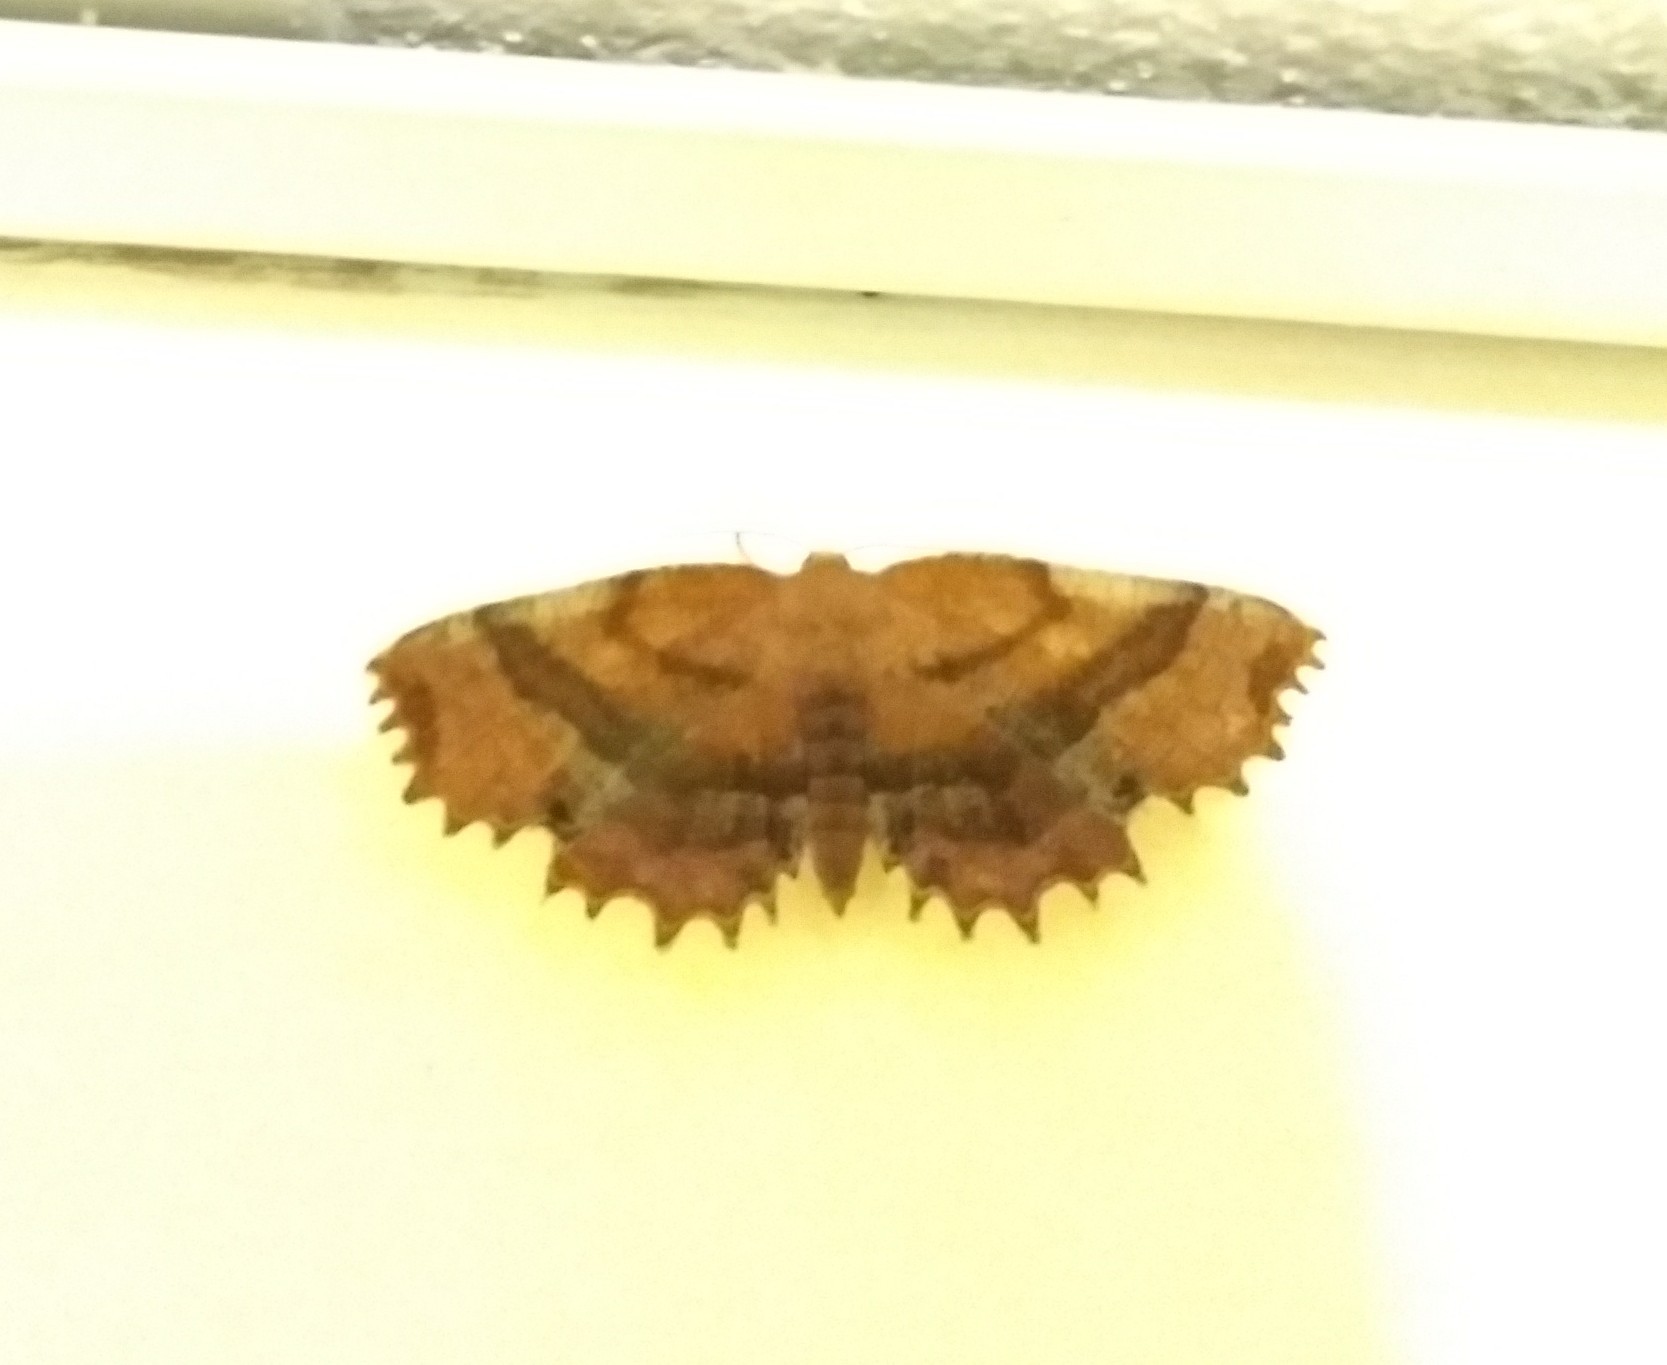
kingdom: Animalia
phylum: Arthropoda
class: Insecta
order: Lepidoptera
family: Geometridae
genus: Cepphis
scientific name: Cepphis armataria
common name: Scallop moth
